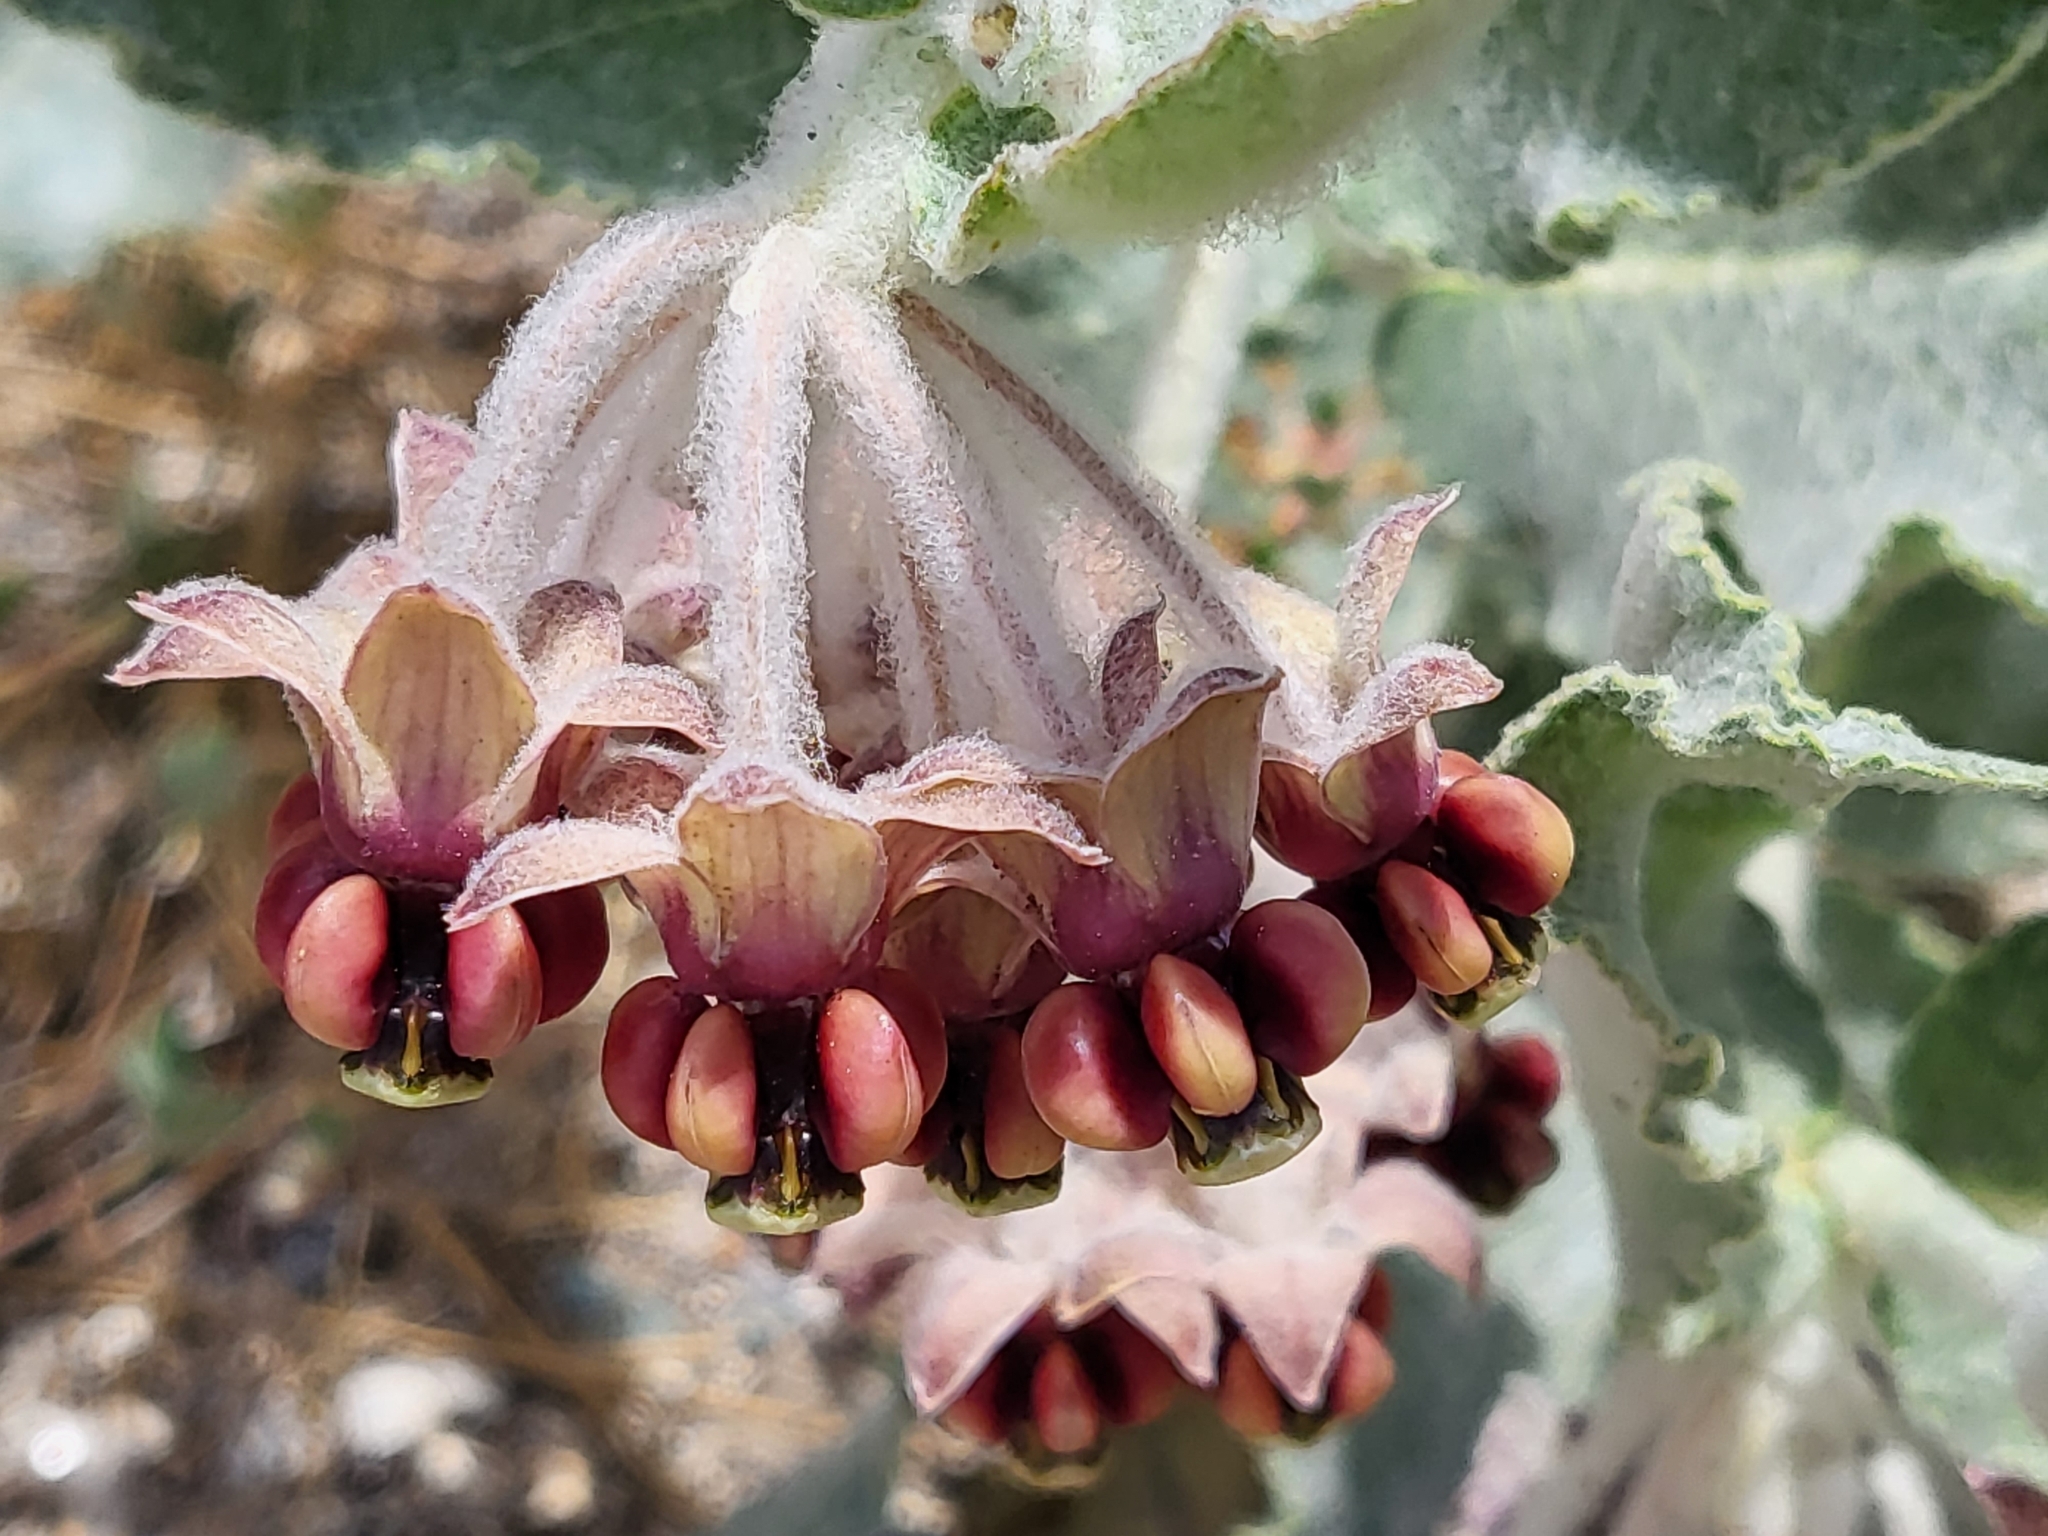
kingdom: Plantae
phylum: Tracheophyta
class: Magnoliopsida
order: Gentianales
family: Apocynaceae
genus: Asclepias
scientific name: Asclepias californica
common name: California milkweed
